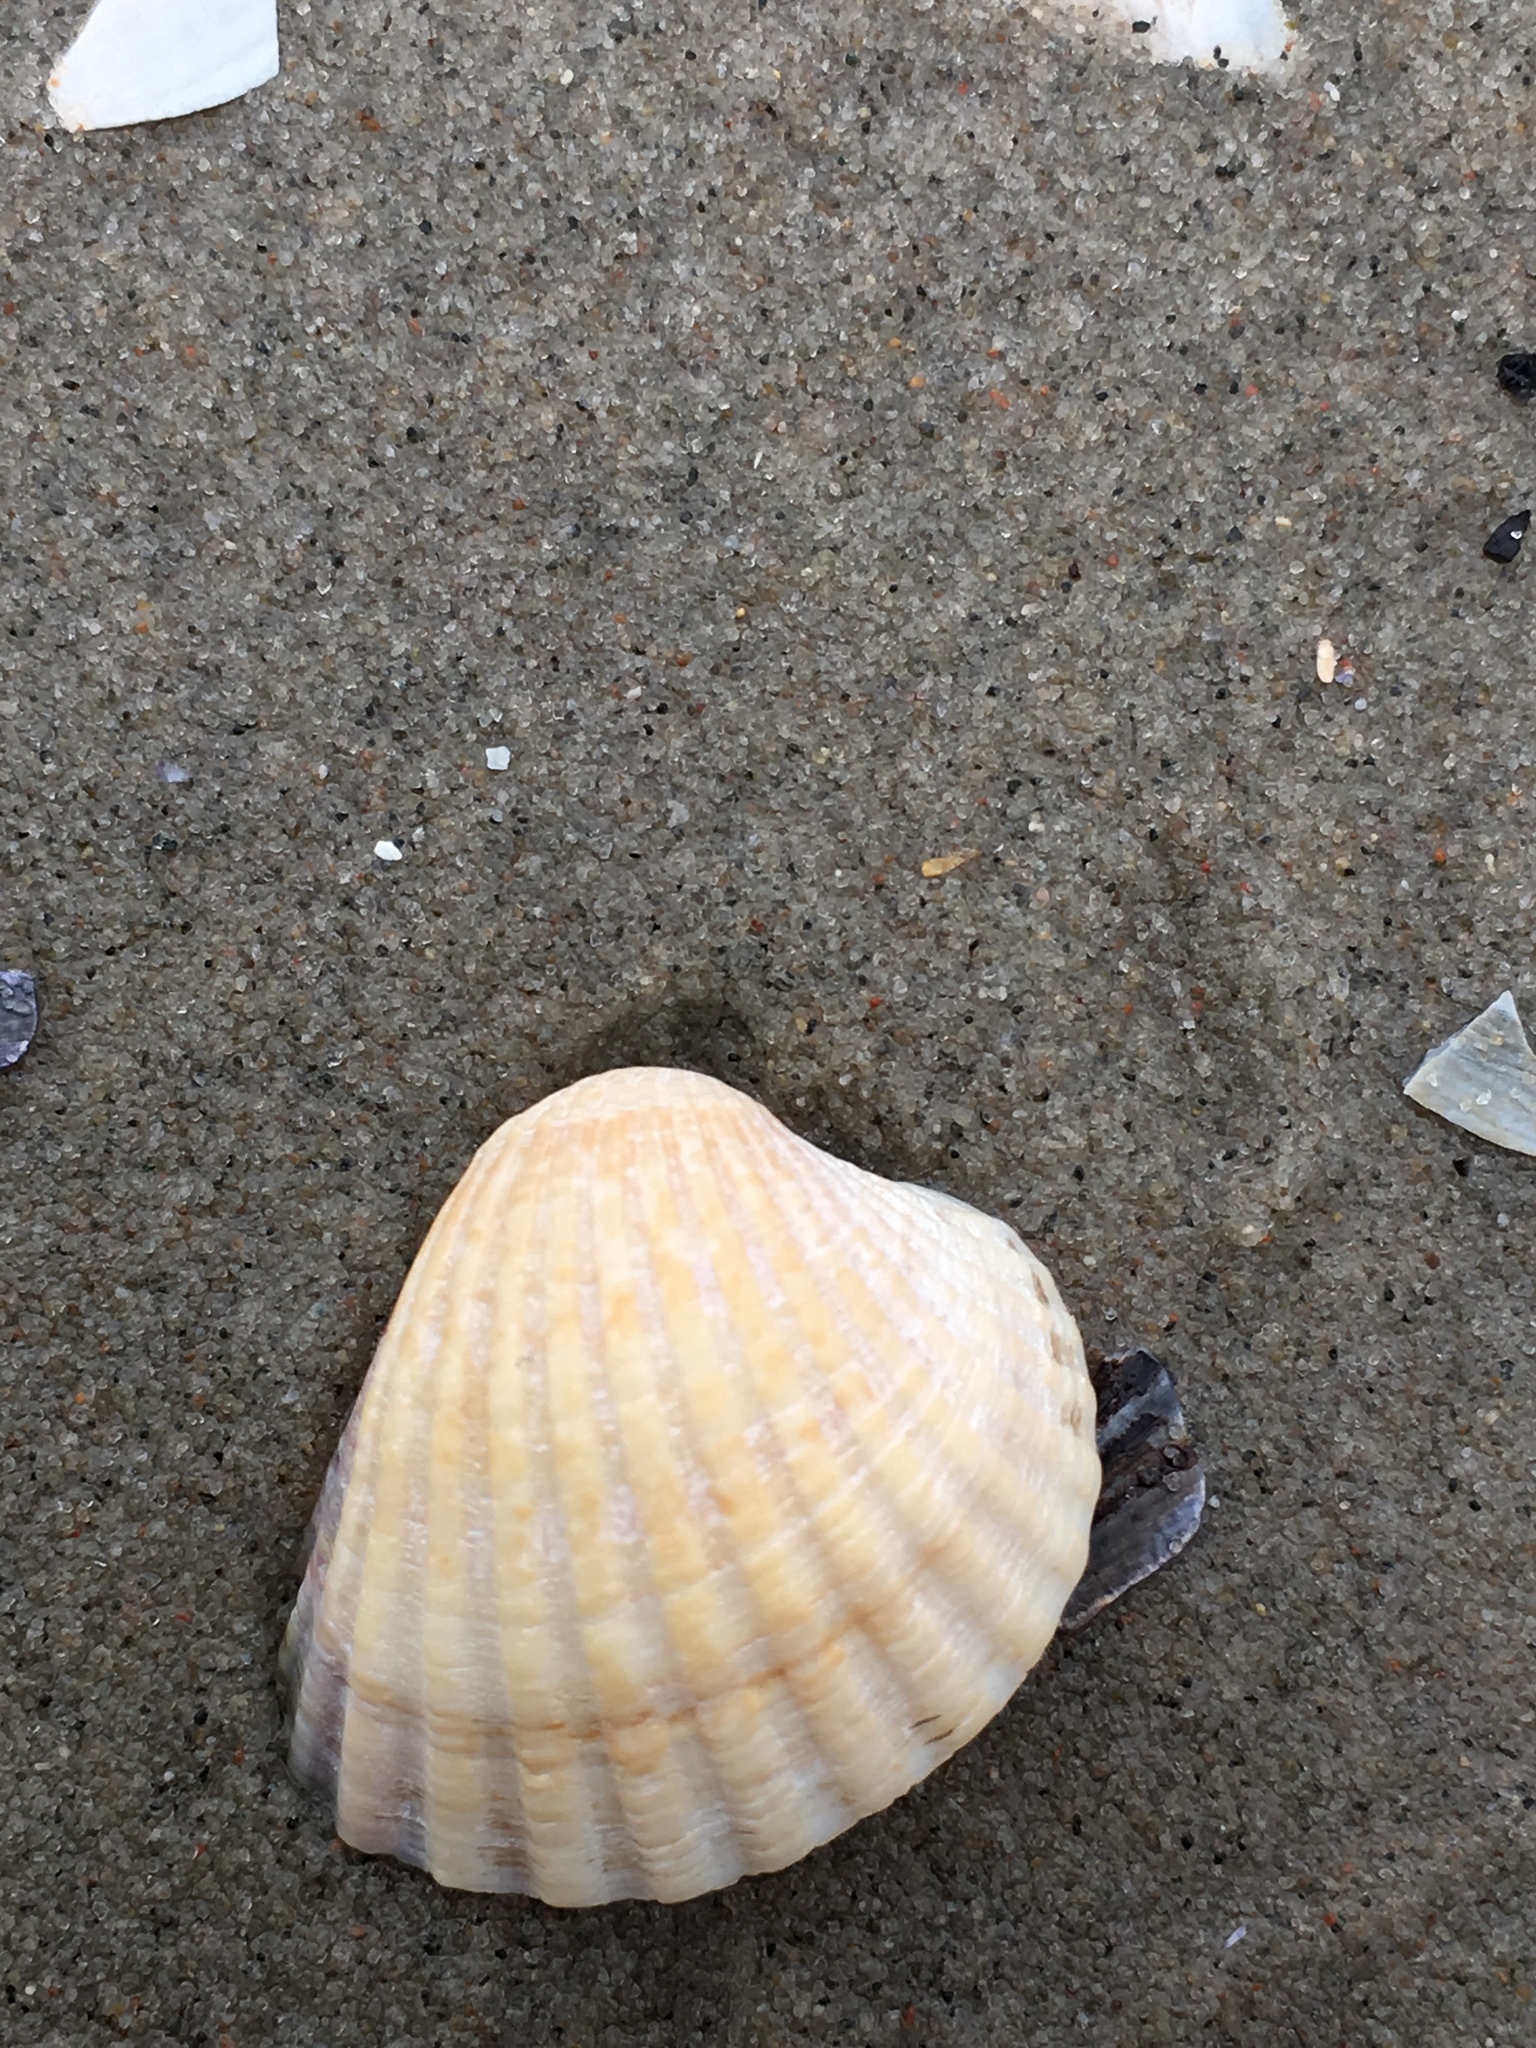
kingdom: Animalia
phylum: Mollusca
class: Bivalvia
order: Cardiida
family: Cardiidae
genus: Cerastoderma
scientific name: Cerastoderma edule
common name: Common cockle
